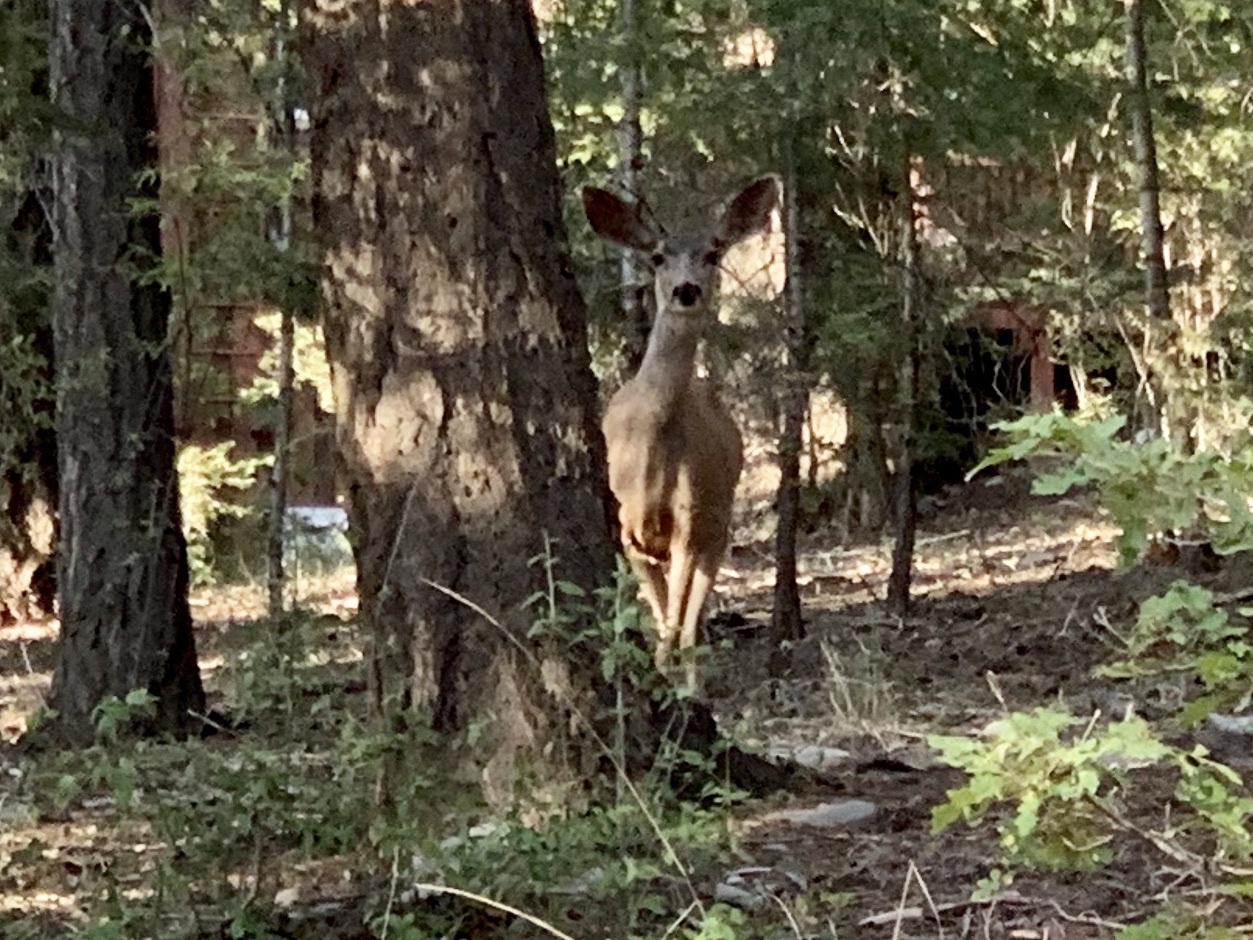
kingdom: Animalia
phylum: Chordata
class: Mammalia
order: Artiodactyla
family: Cervidae
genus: Odocoileus
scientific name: Odocoileus hemionus
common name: Mule deer
